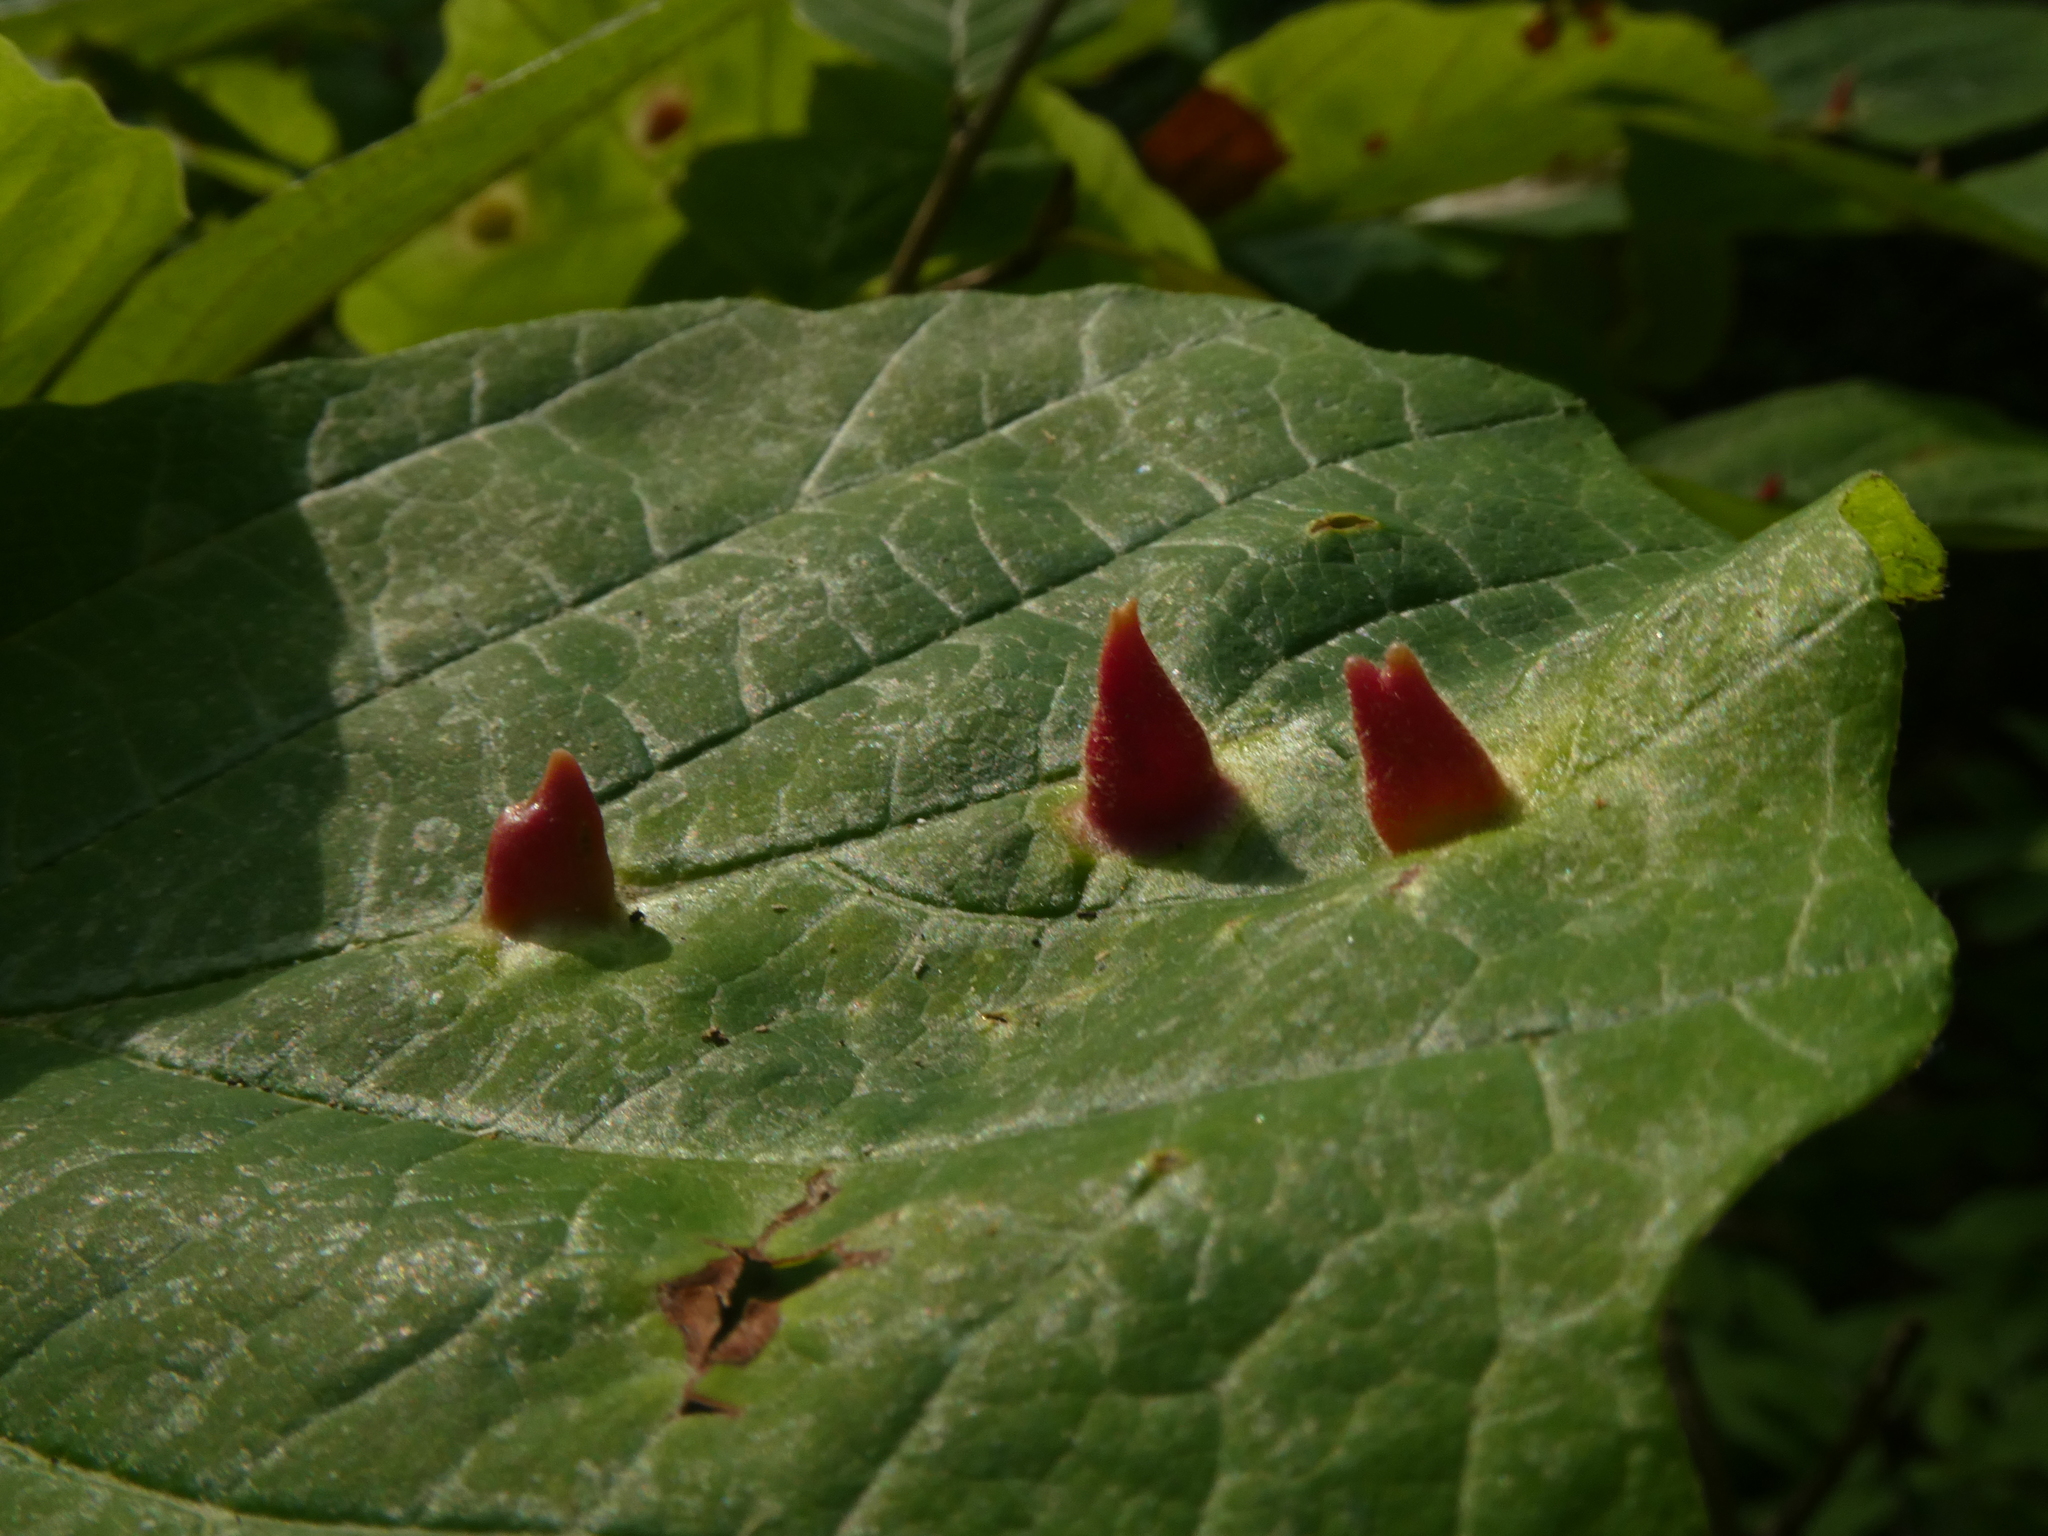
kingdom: Animalia
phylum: Arthropoda
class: Insecta
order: Hemiptera
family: Aphididae
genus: Hormaphis
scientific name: Hormaphis hamamelidis
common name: Witch-hazel cone gall aphid
